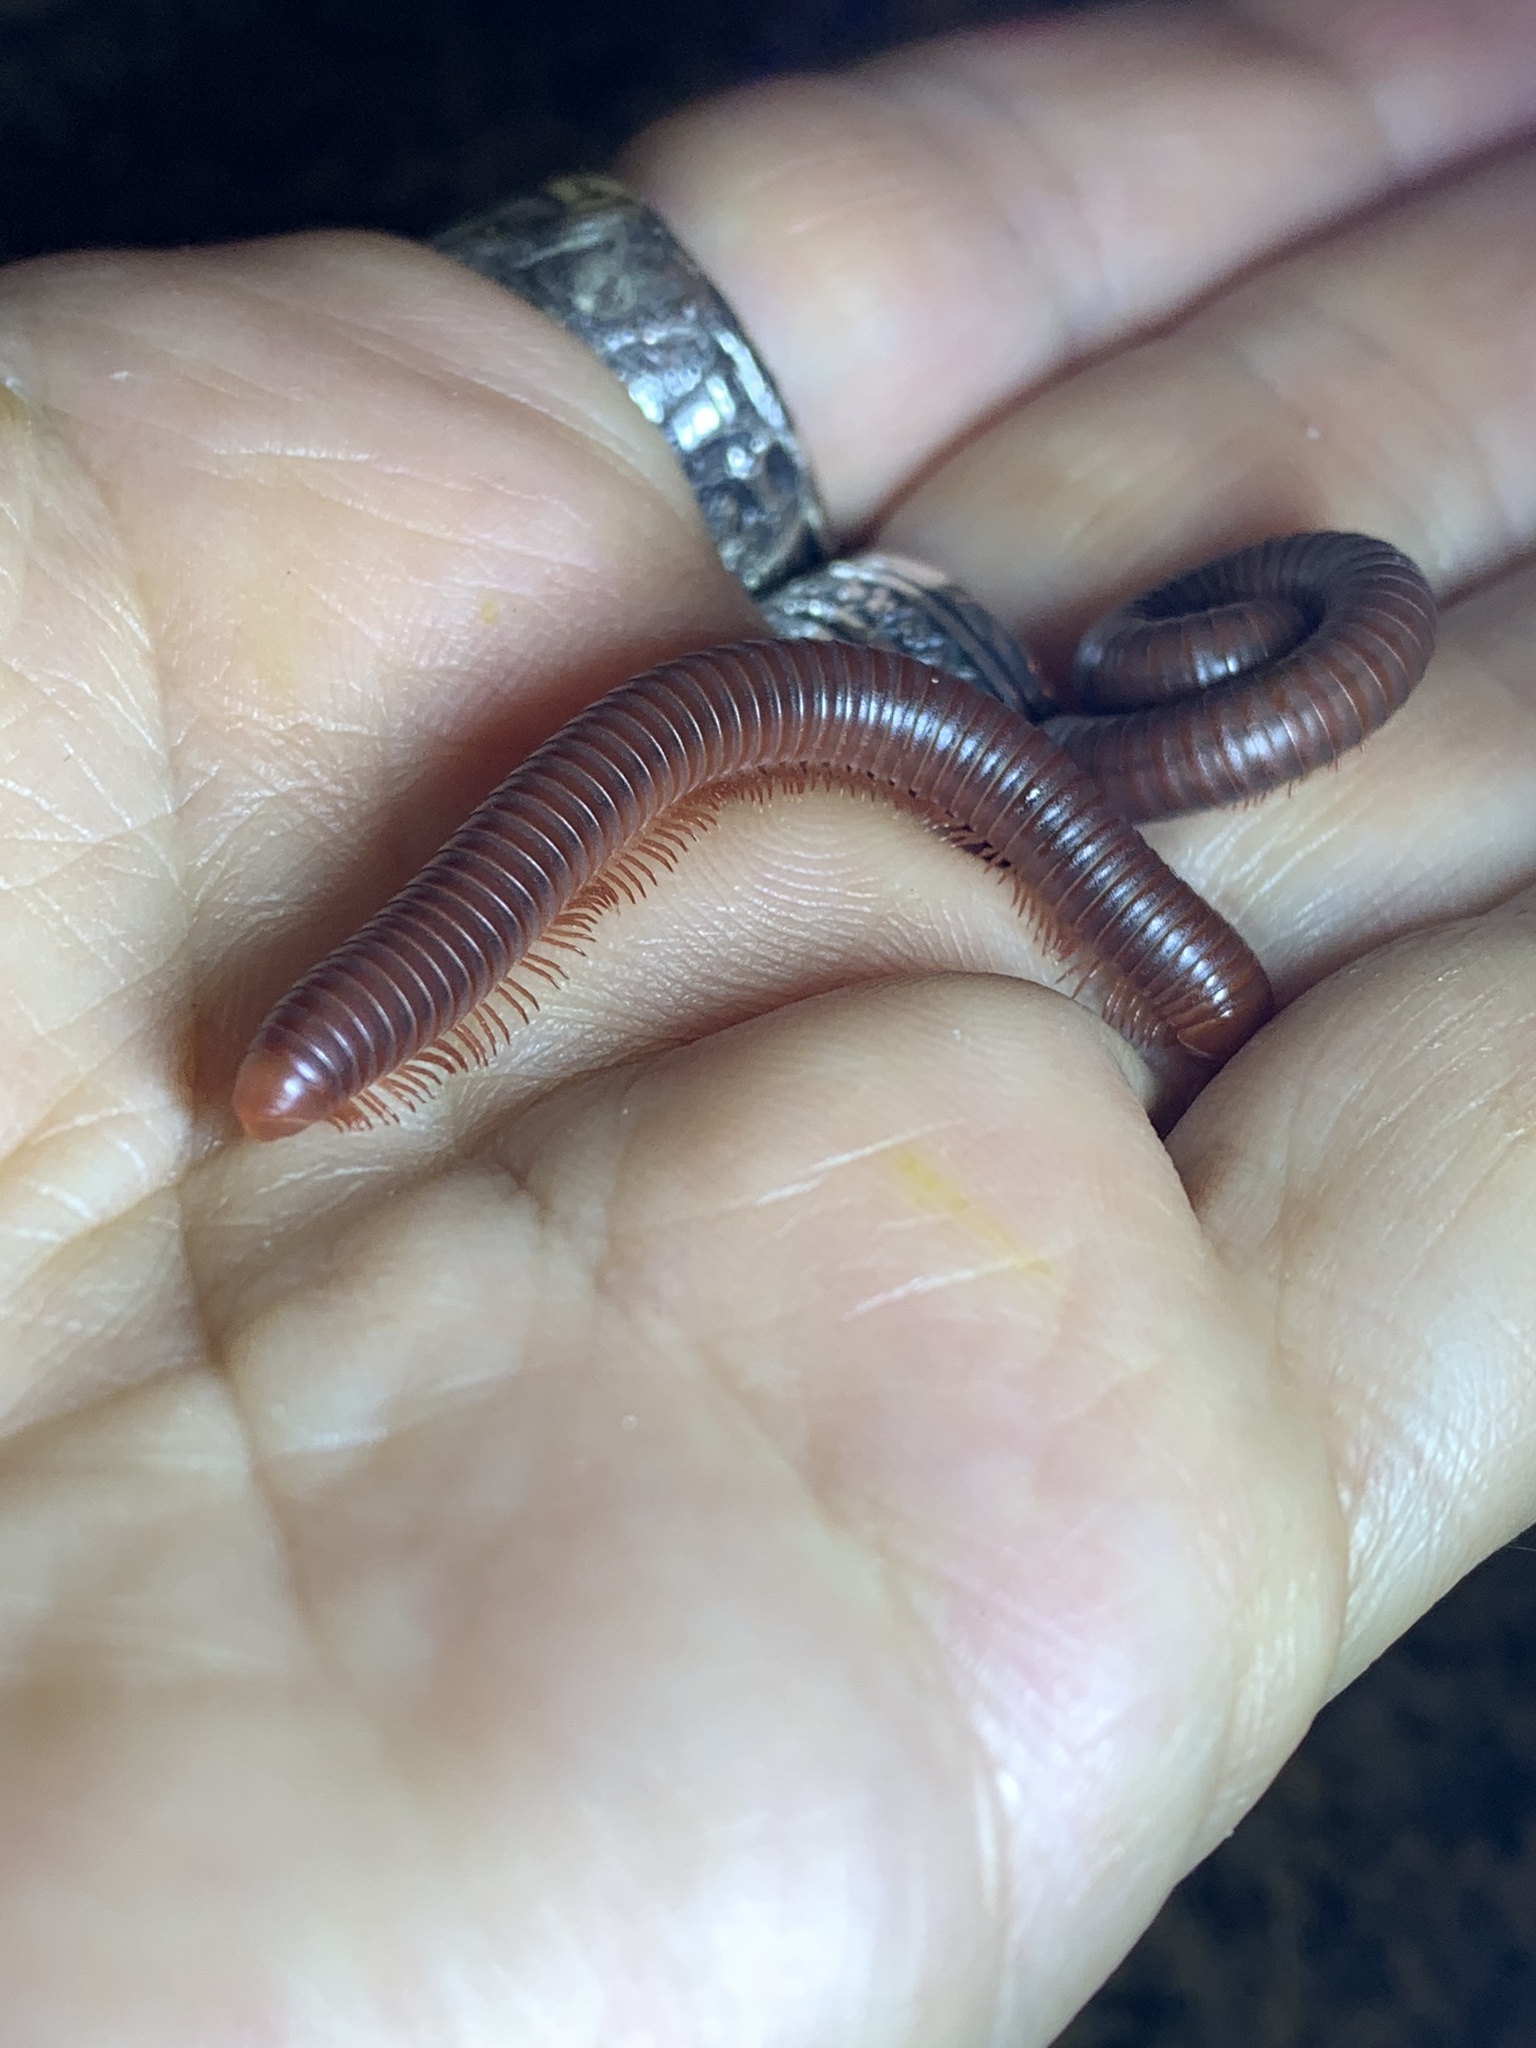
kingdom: Animalia
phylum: Arthropoda
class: Diplopoda
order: Spirobolida
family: Pachybolidae
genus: Trigoniulus
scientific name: Trigoniulus corallinus
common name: Millipede
